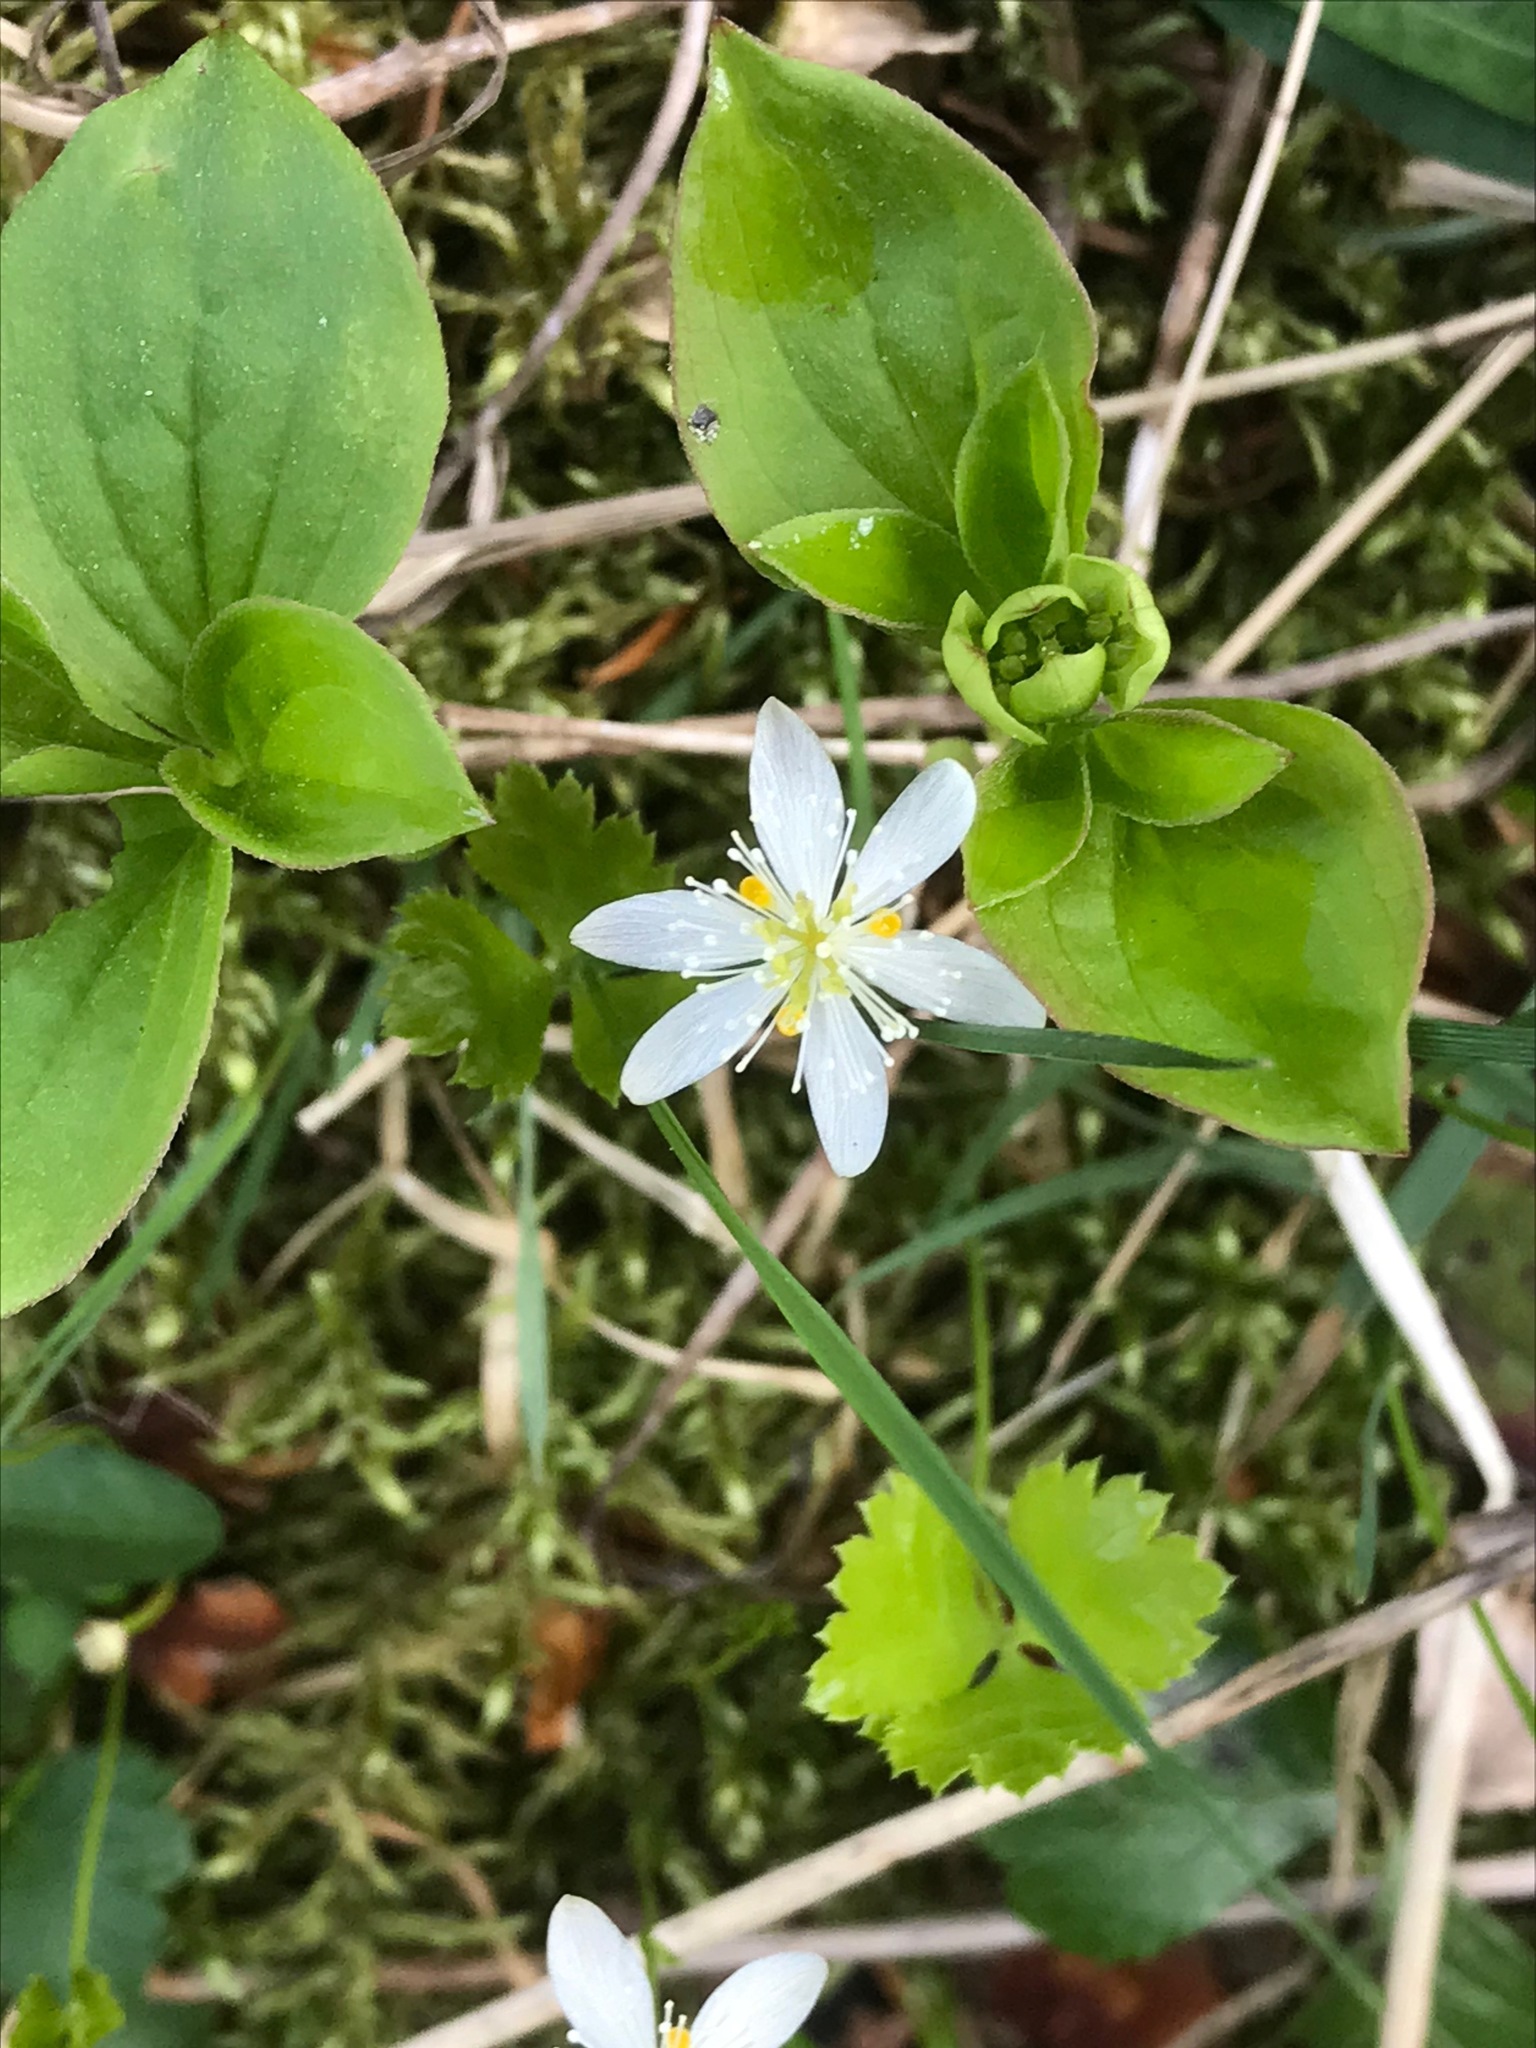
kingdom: Plantae
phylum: Tracheophyta
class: Magnoliopsida
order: Ranunculales
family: Ranunculaceae
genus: Coptis
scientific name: Coptis trifolia
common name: Canker-root
